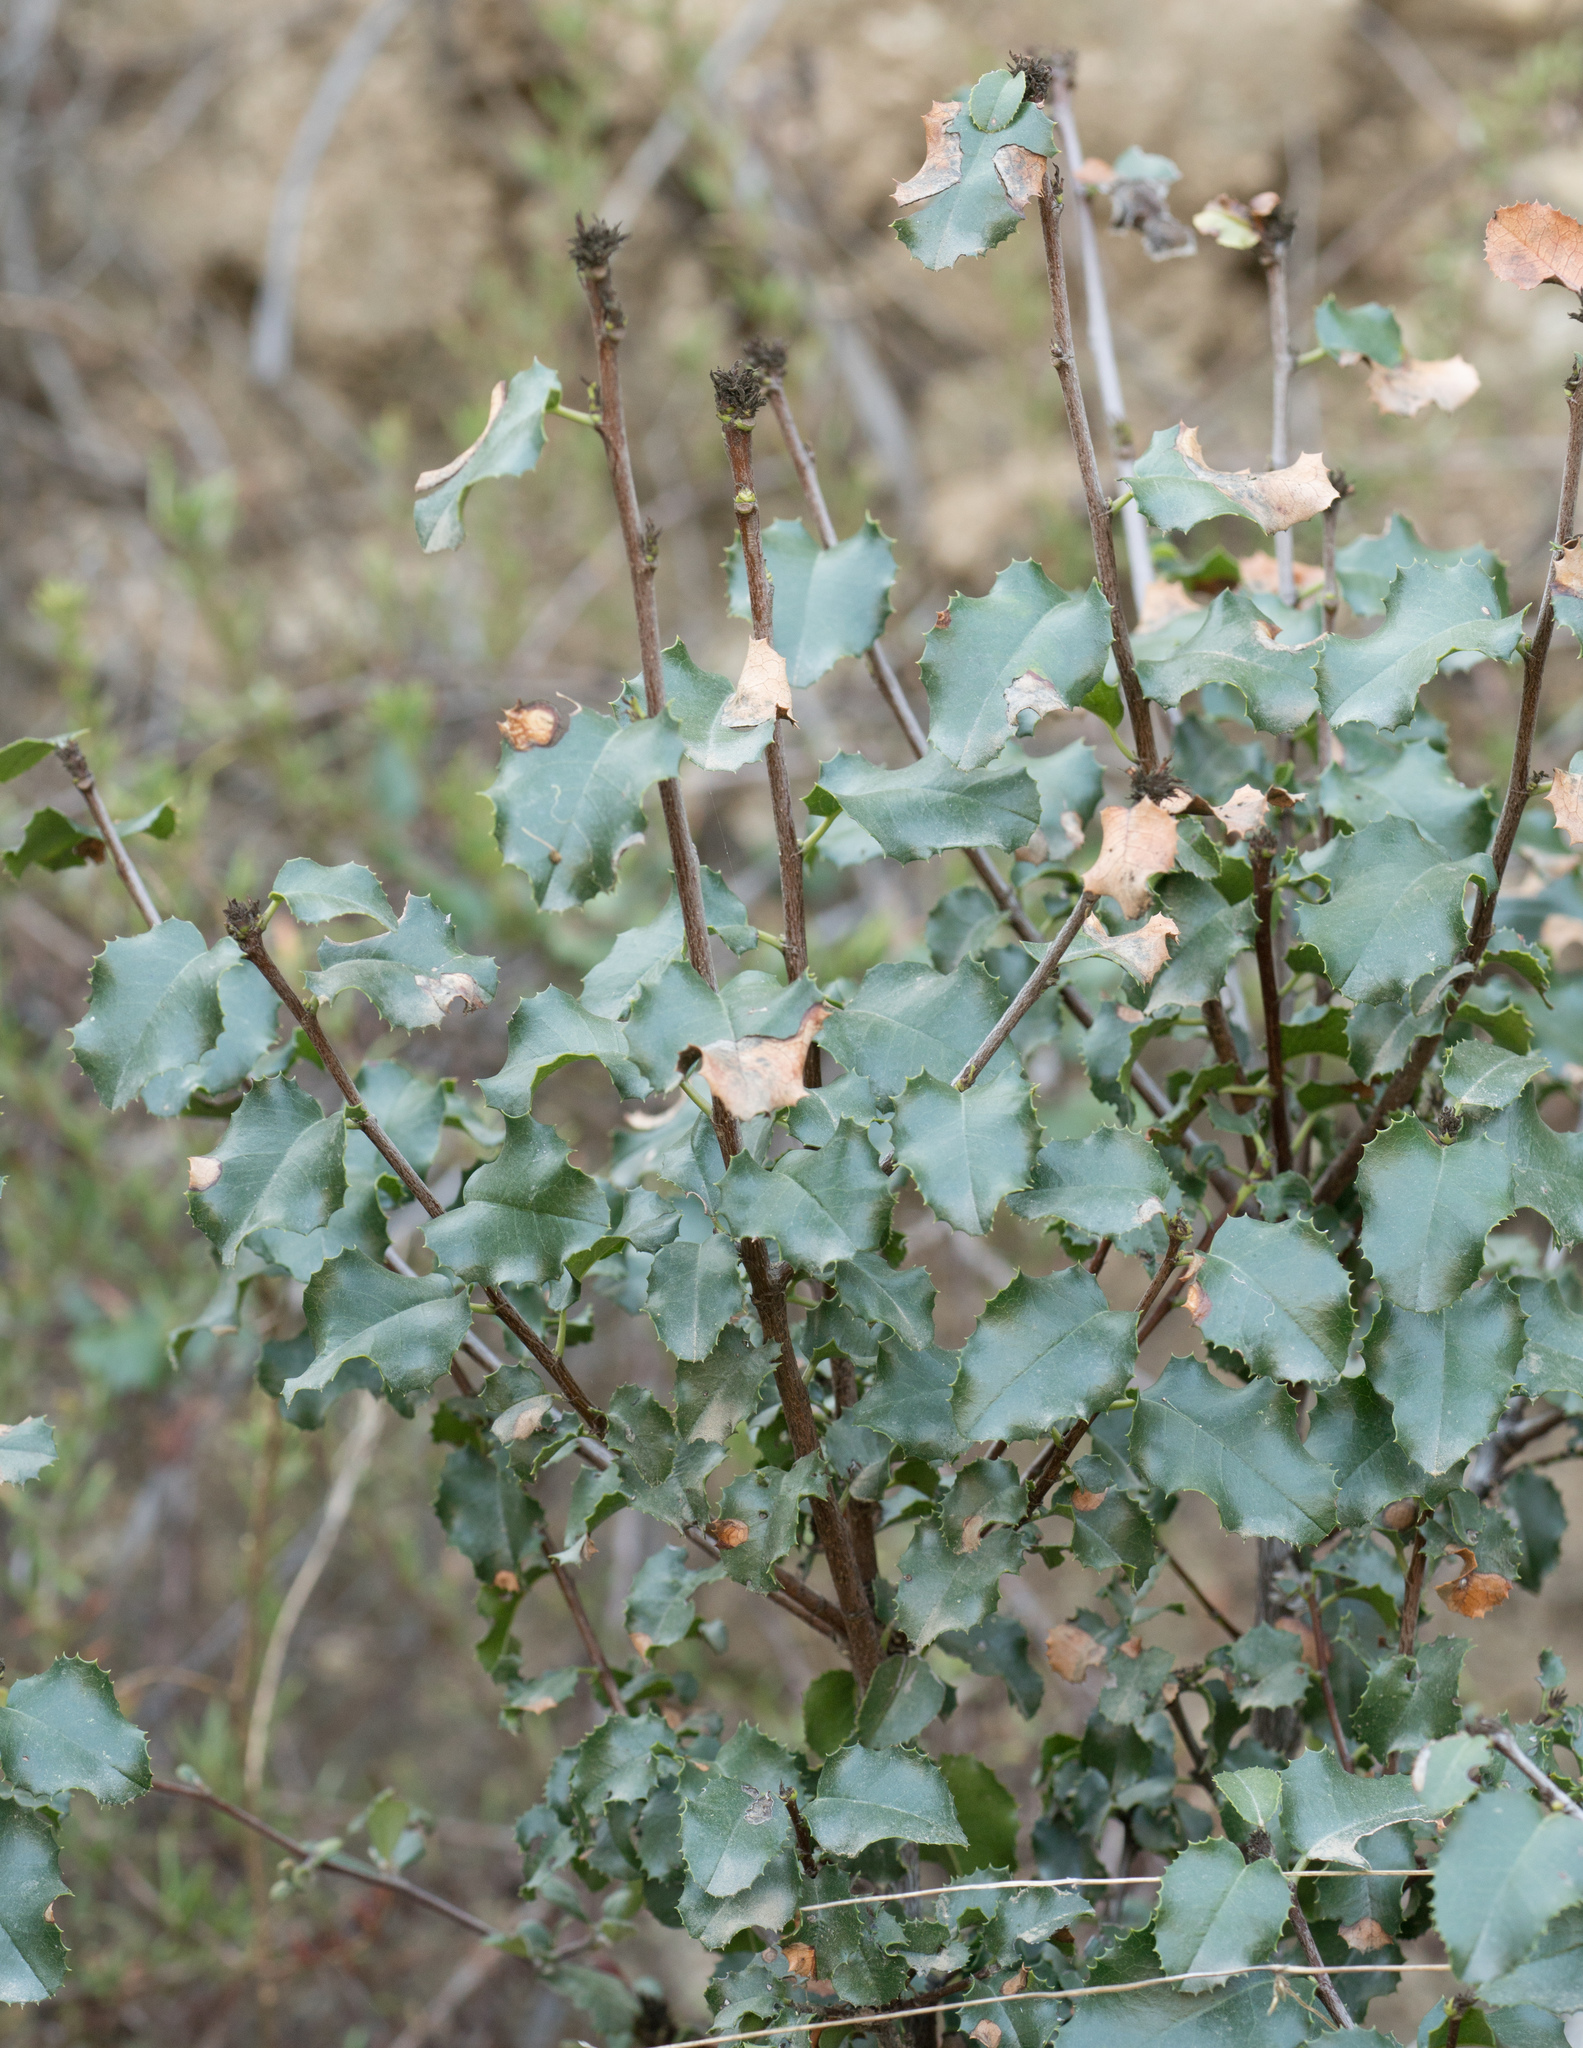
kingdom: Plantae
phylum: Tracheophyta
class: Magnoliopsida
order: Rosales
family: Rosaceae
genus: Prunus
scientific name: Prunus ilicifolia
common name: Hollyleaf cherry
